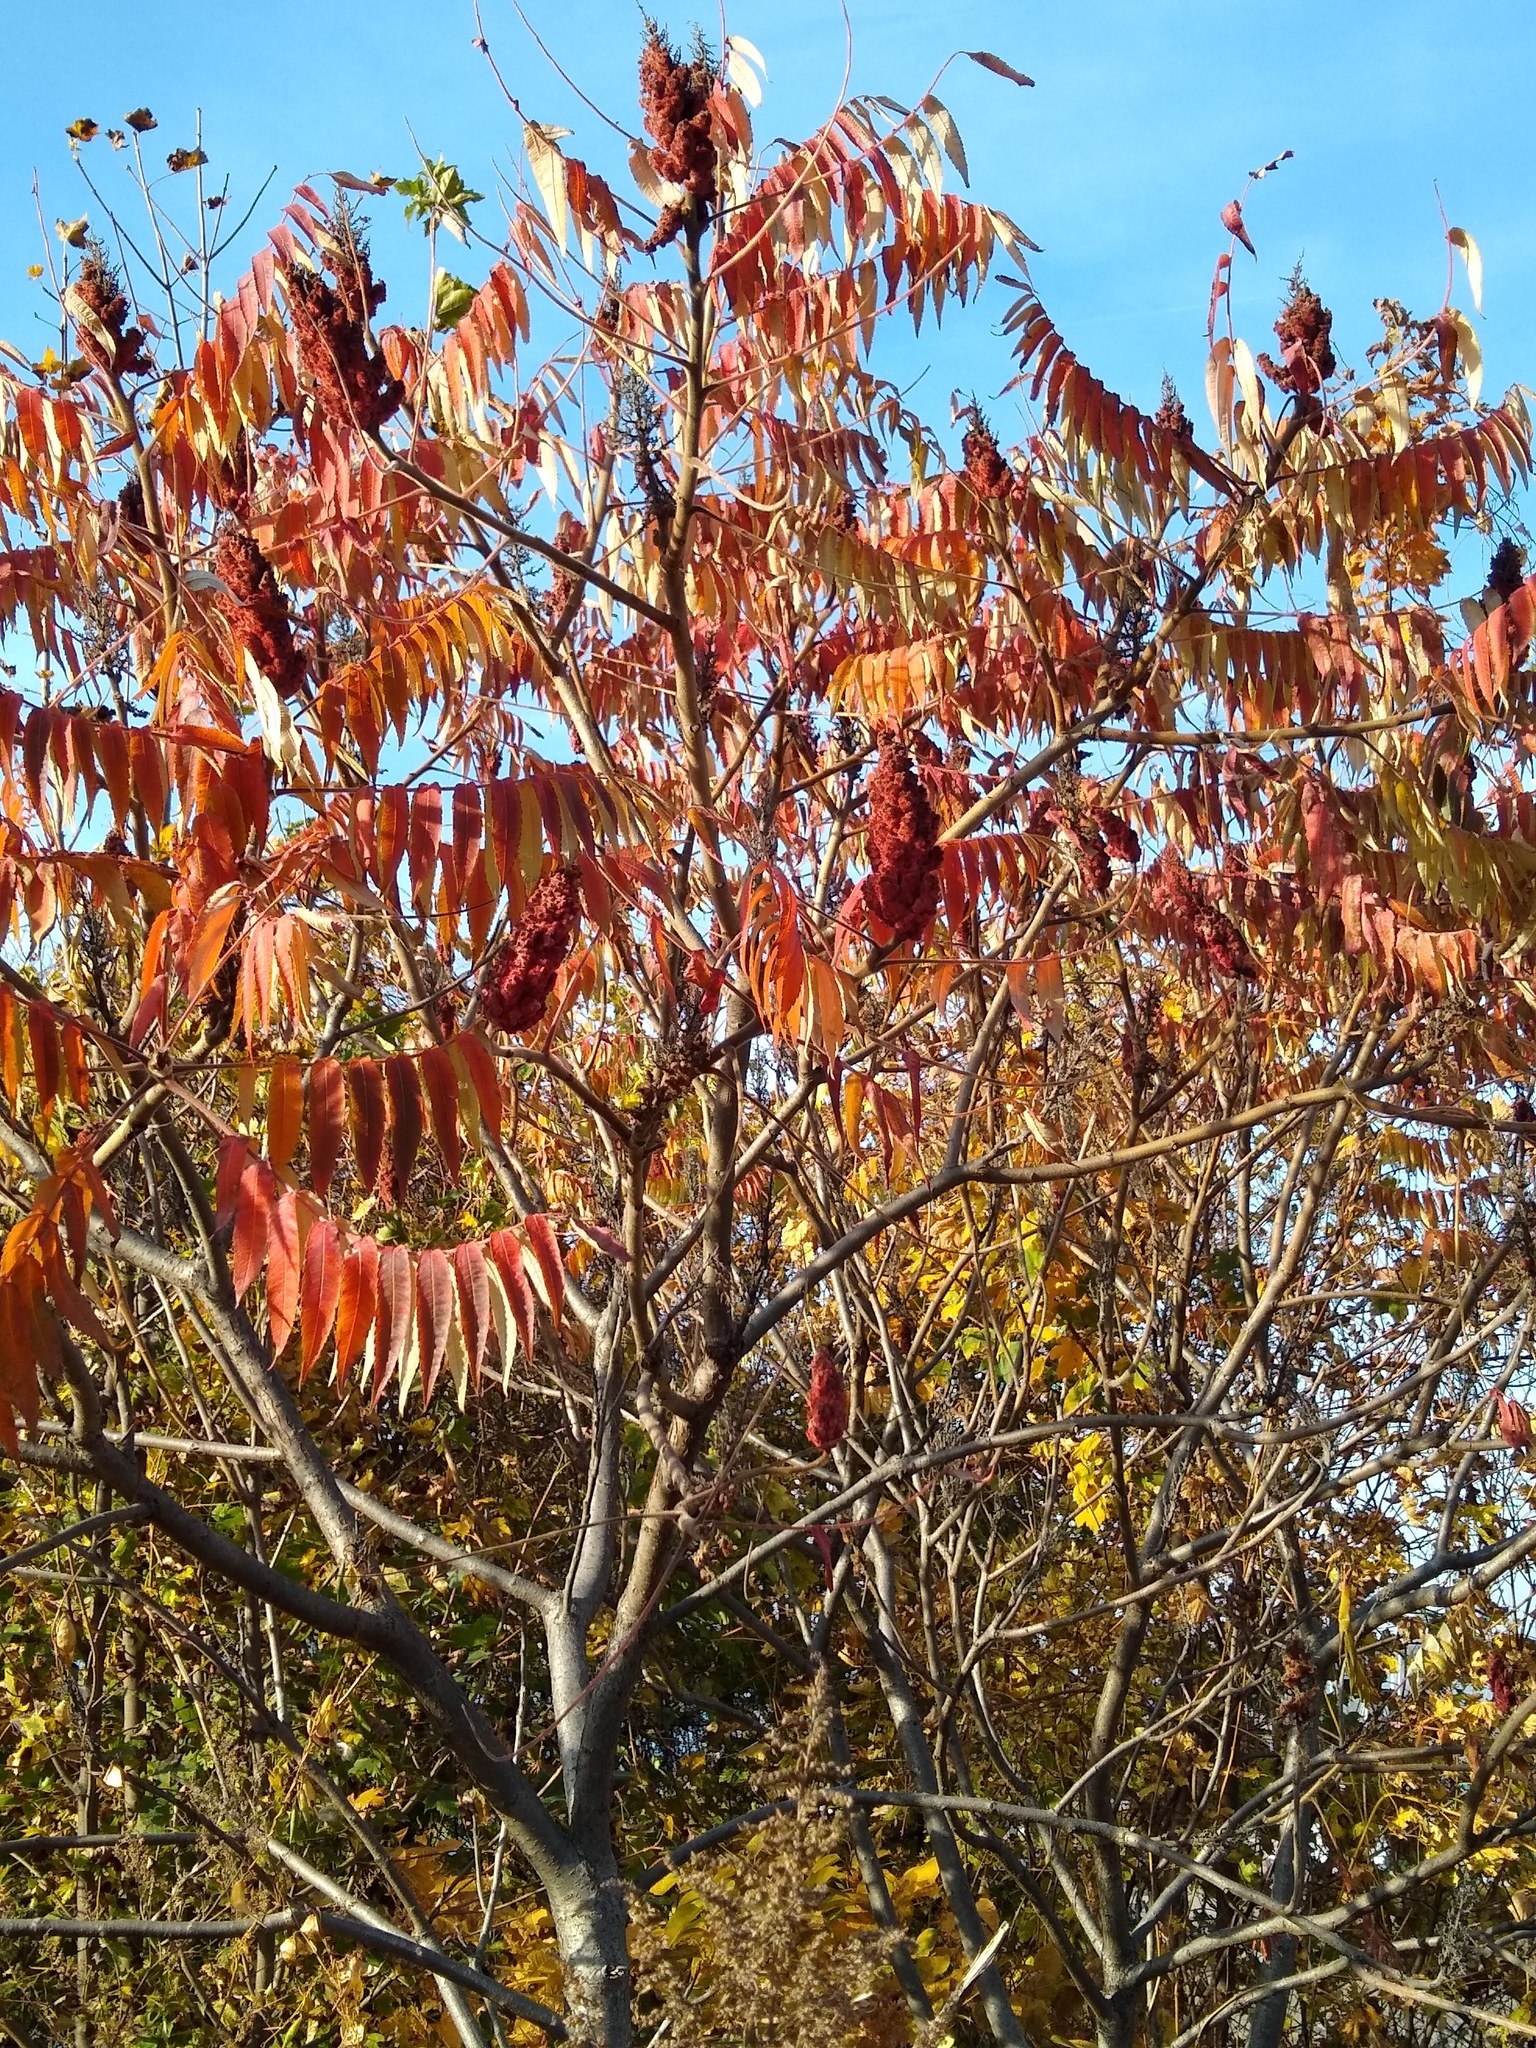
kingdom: Plantae
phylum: Tracheophyta
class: Magnoliopsida
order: Sapindales
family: Anacardiaceae
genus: Rhus
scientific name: Rhus typhina
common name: Staghorn sumac
